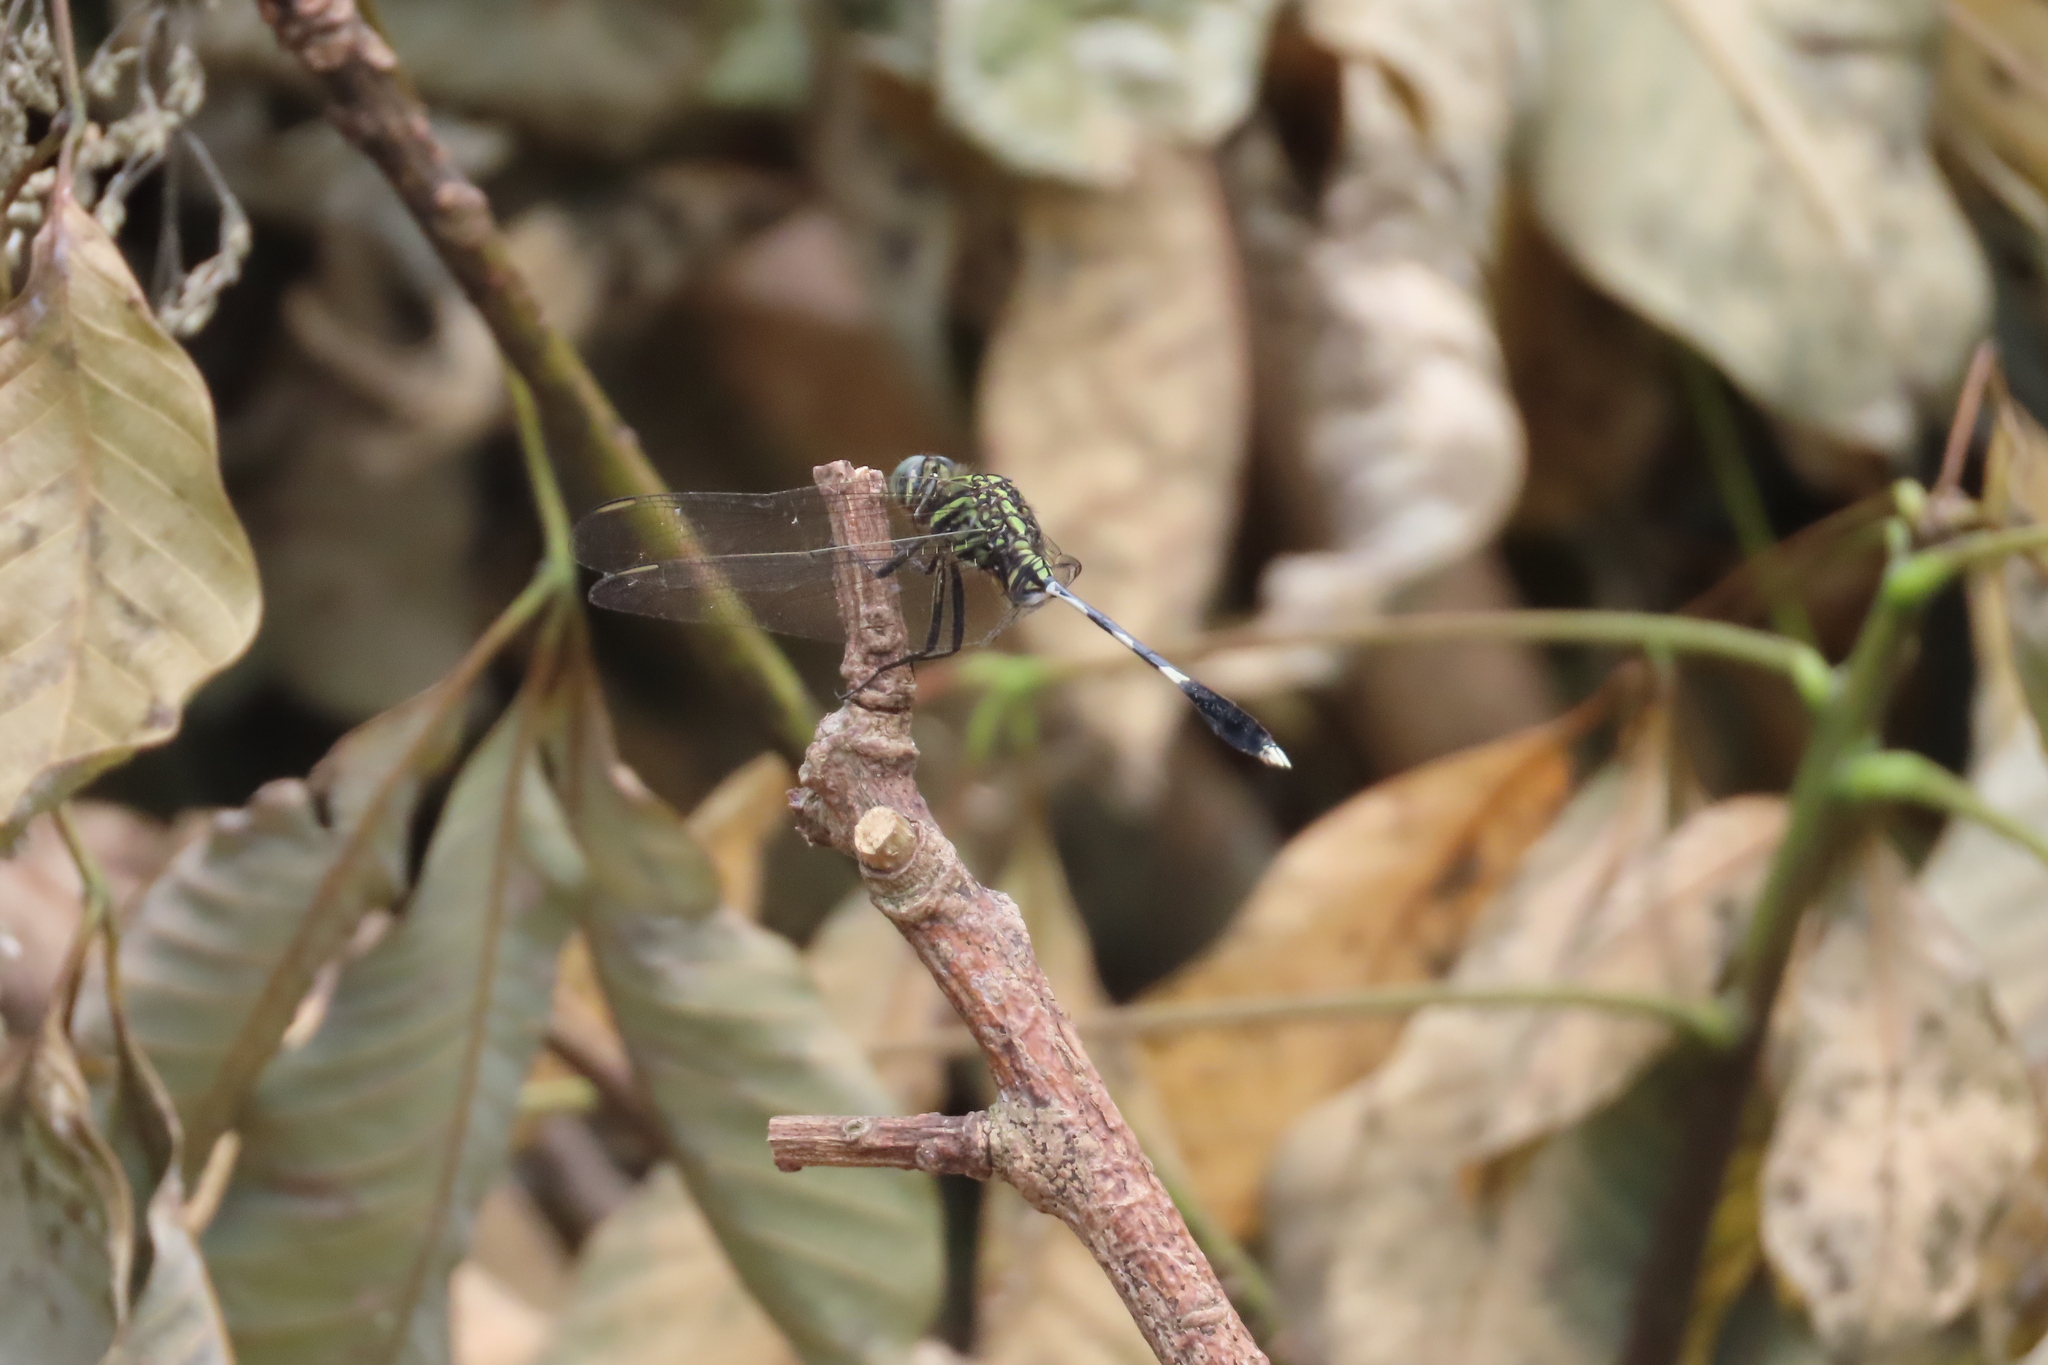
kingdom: Animalia
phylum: Arthropoda
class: Insecta
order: Odonata
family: Libellulidae
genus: Orthetrum
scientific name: Orthetrum sabina
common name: Slender skimmer
